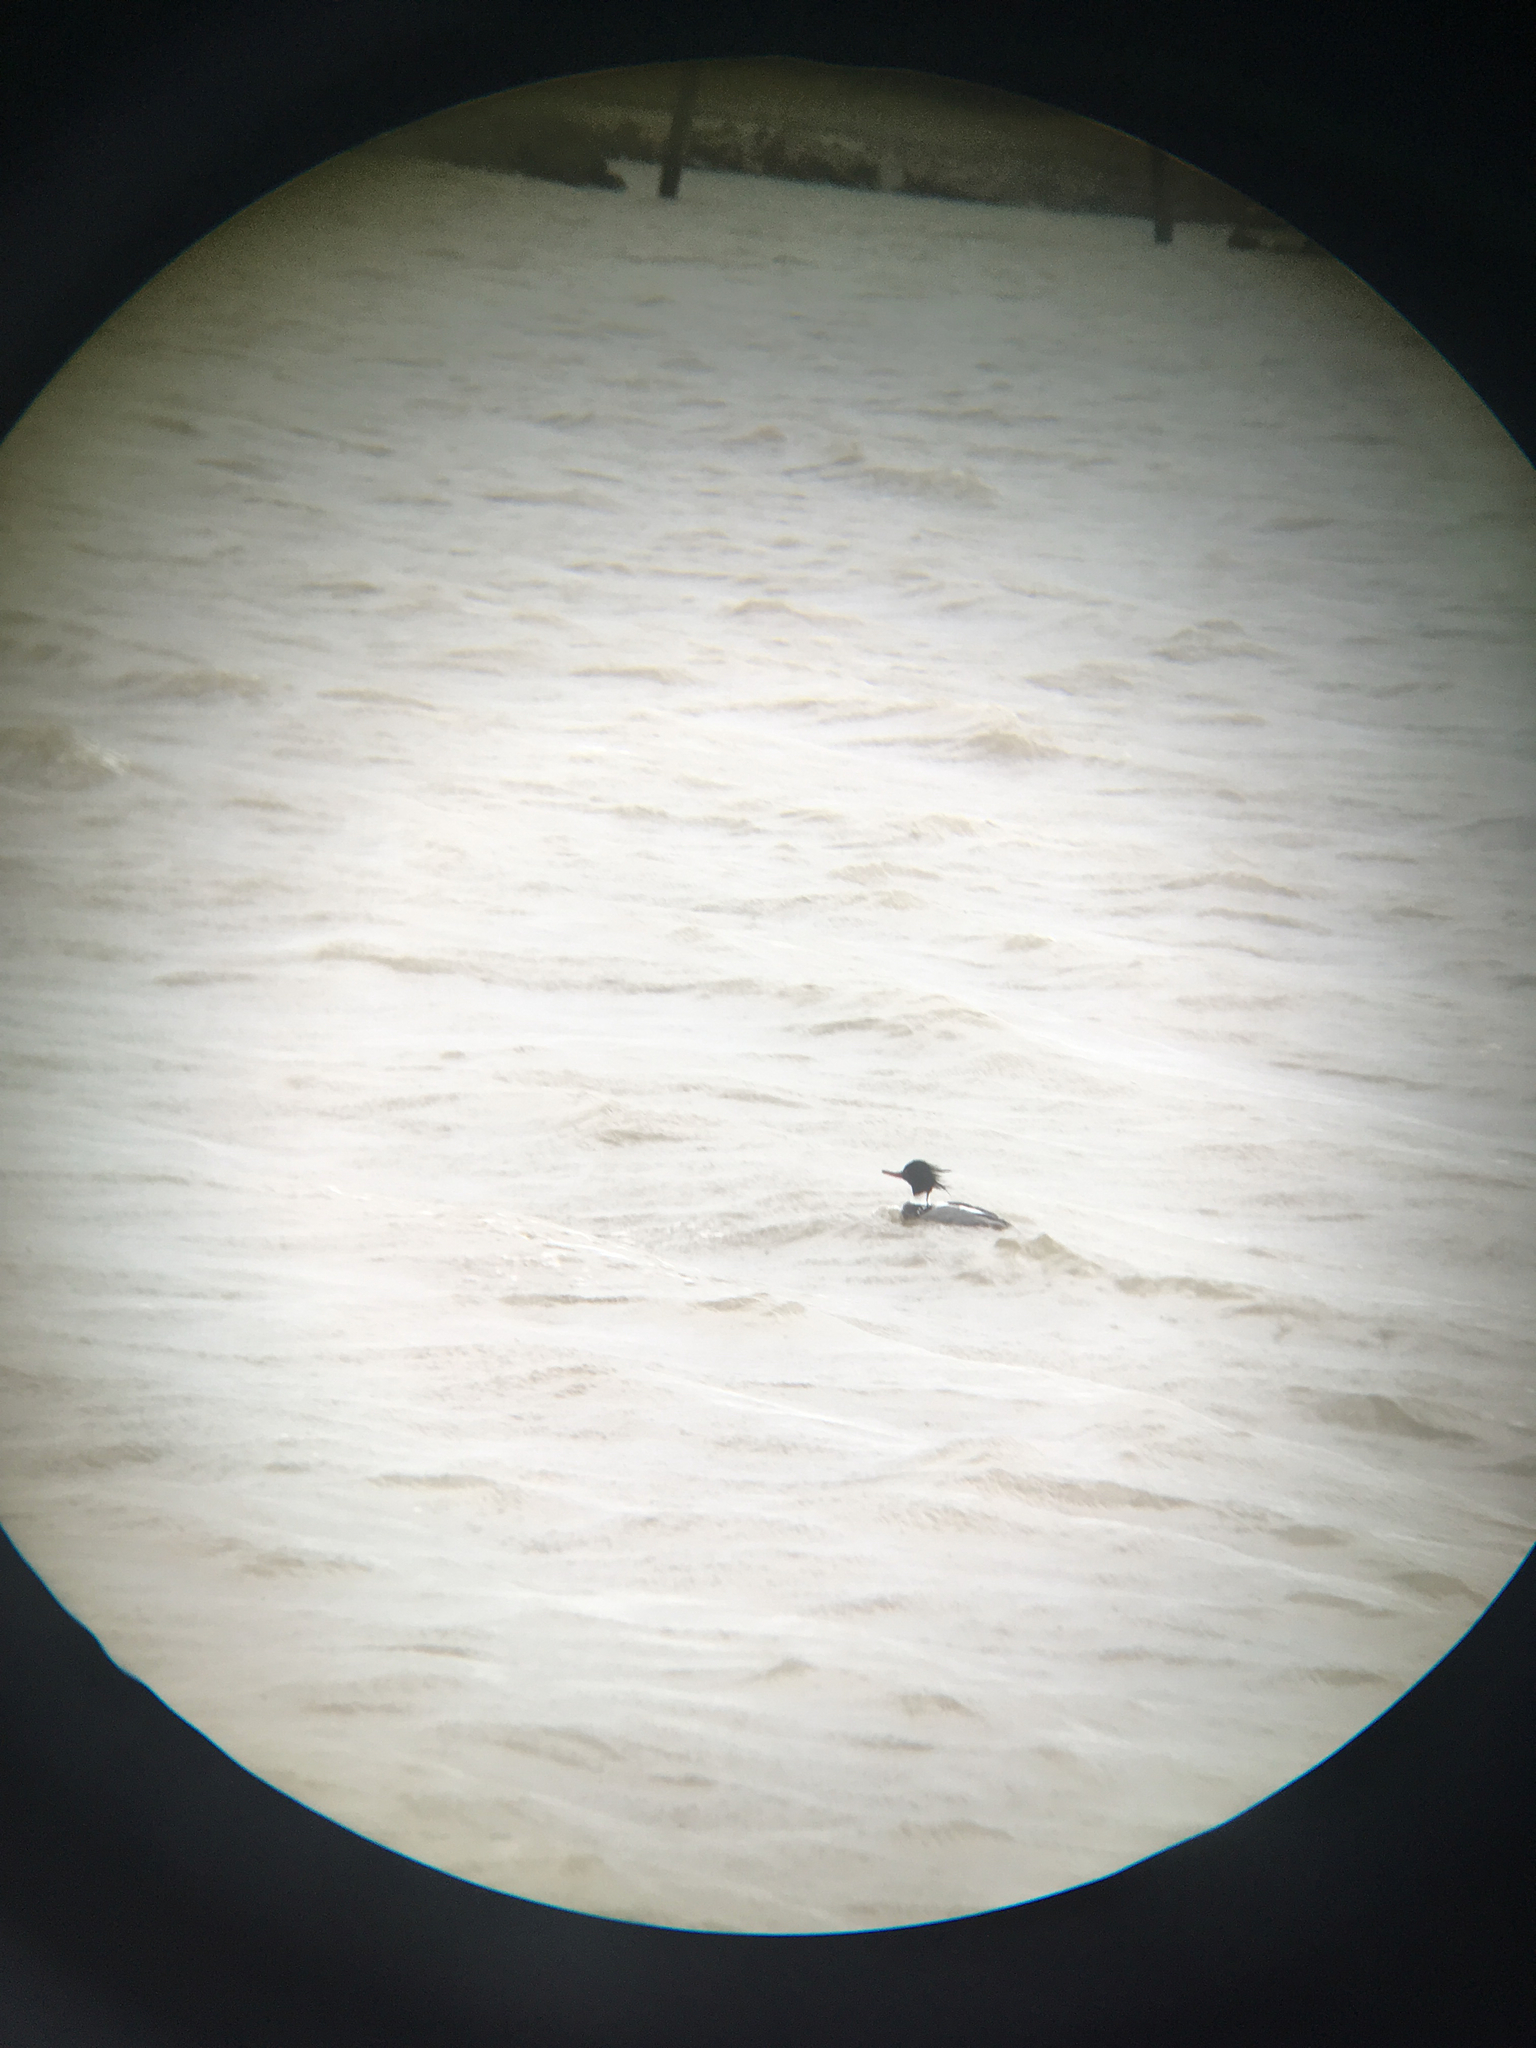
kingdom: Animalia
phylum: Chordata
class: Aves
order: Anseriformes
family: Anatidae
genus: Mergus
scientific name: Mergus serrator
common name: Red-breasted merganser
